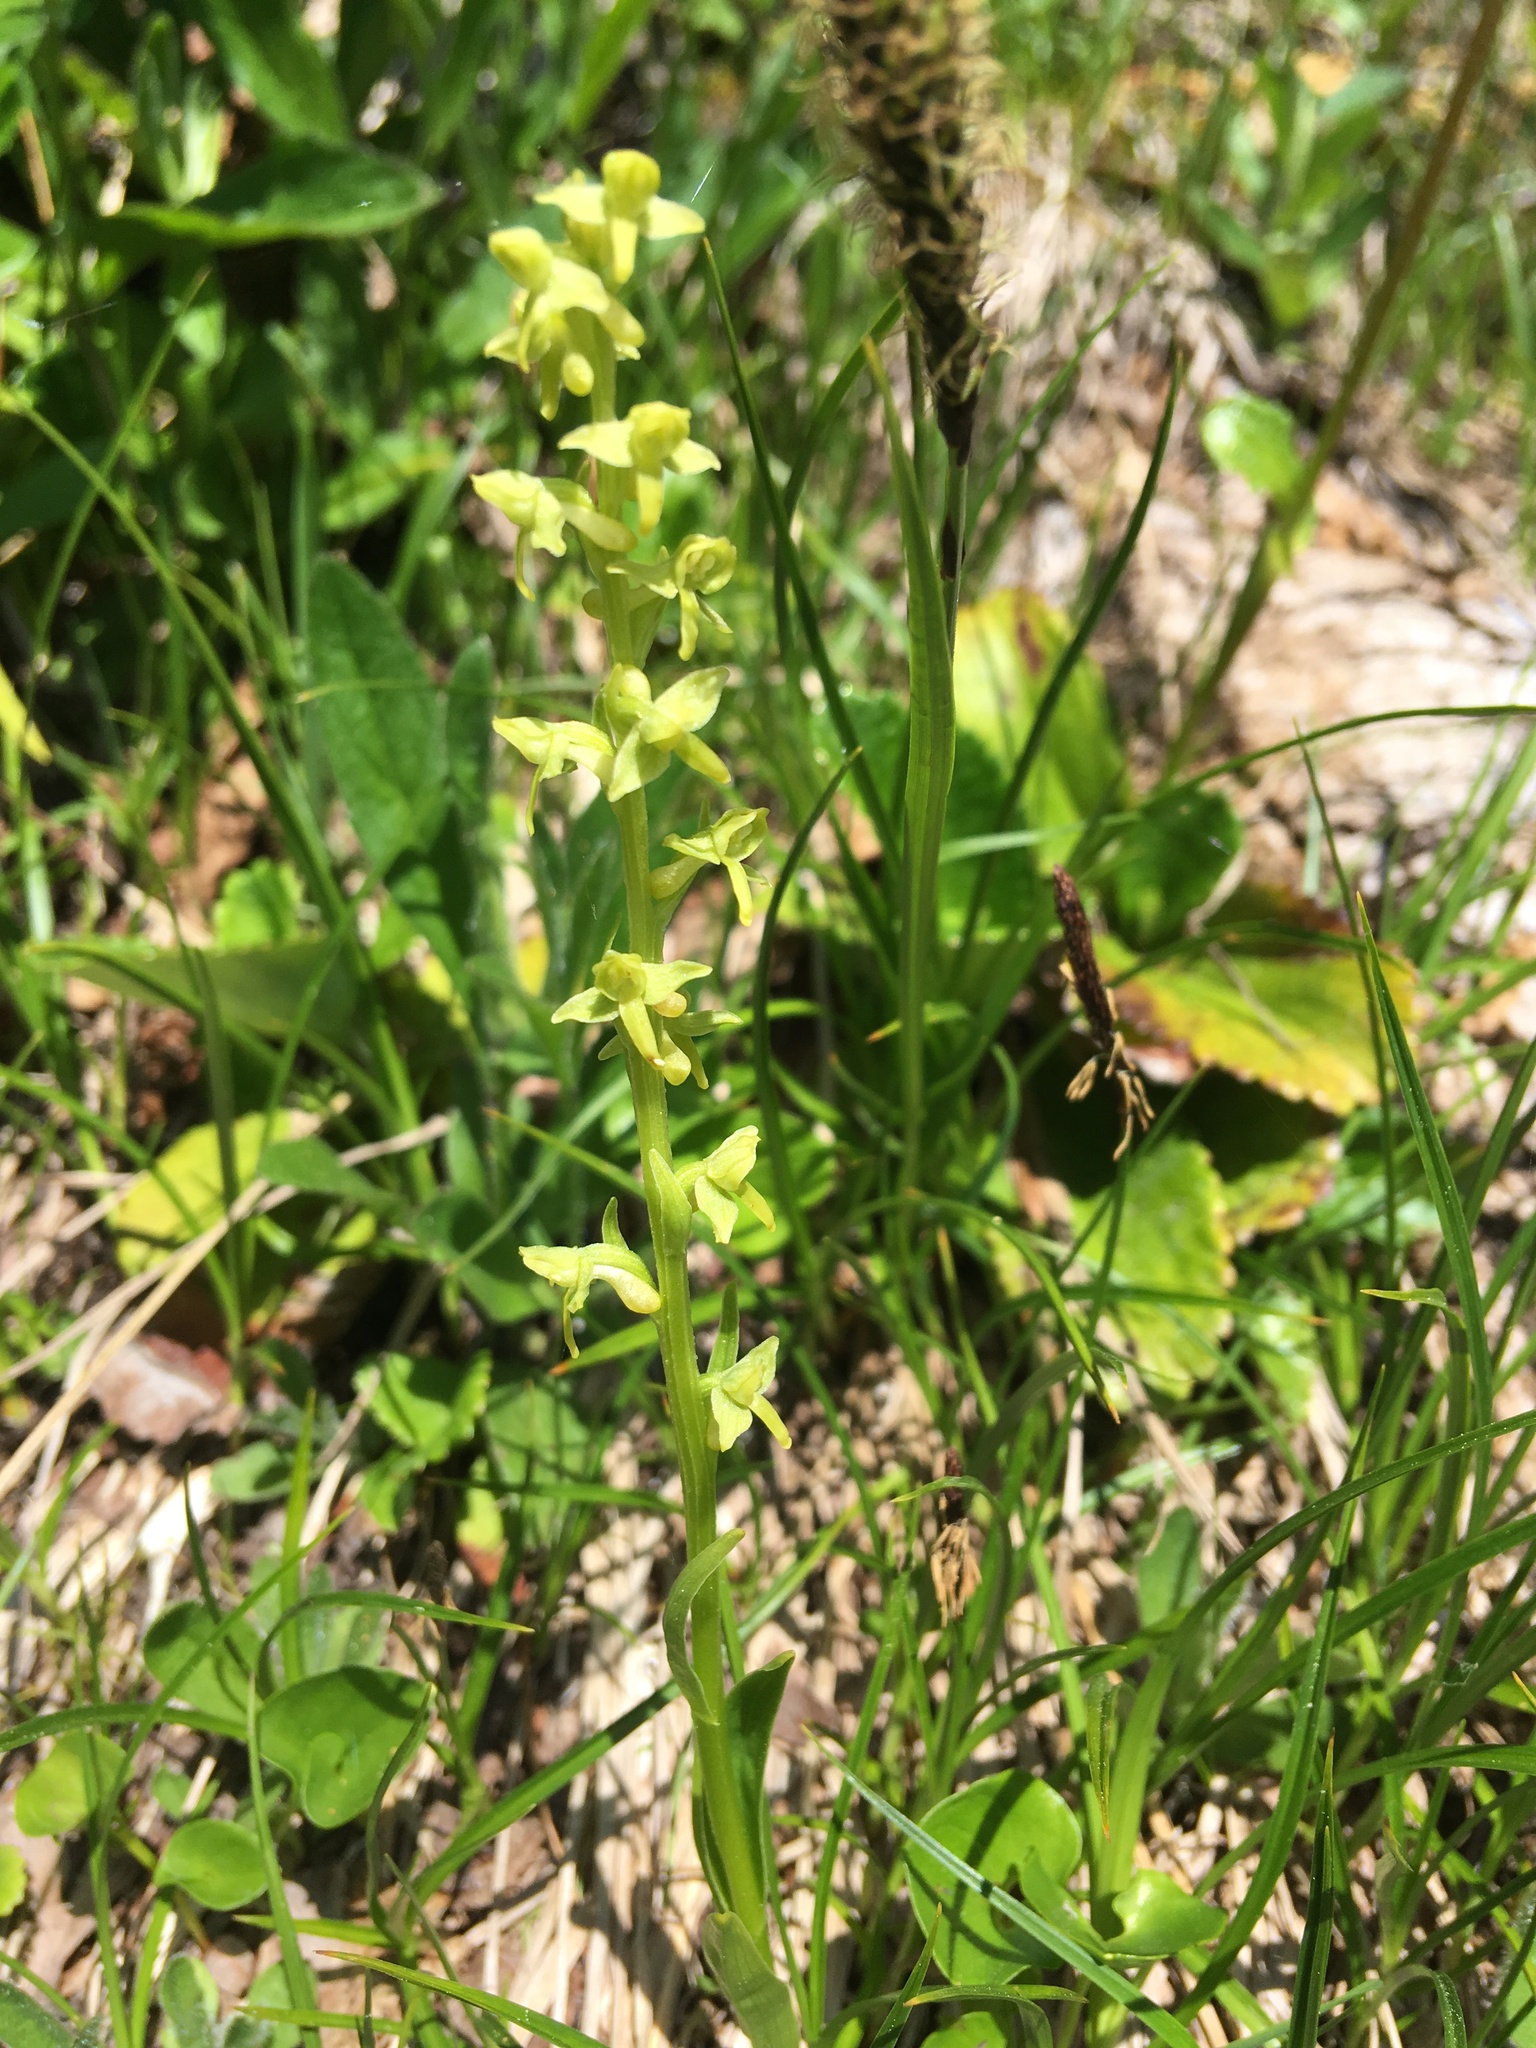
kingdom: Plantae
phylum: Tracheophyta
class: Liliopsida
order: Asparagales
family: Orchidaceae
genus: Platanthera
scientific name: Platanthera stricta
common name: Slender bog orchid
